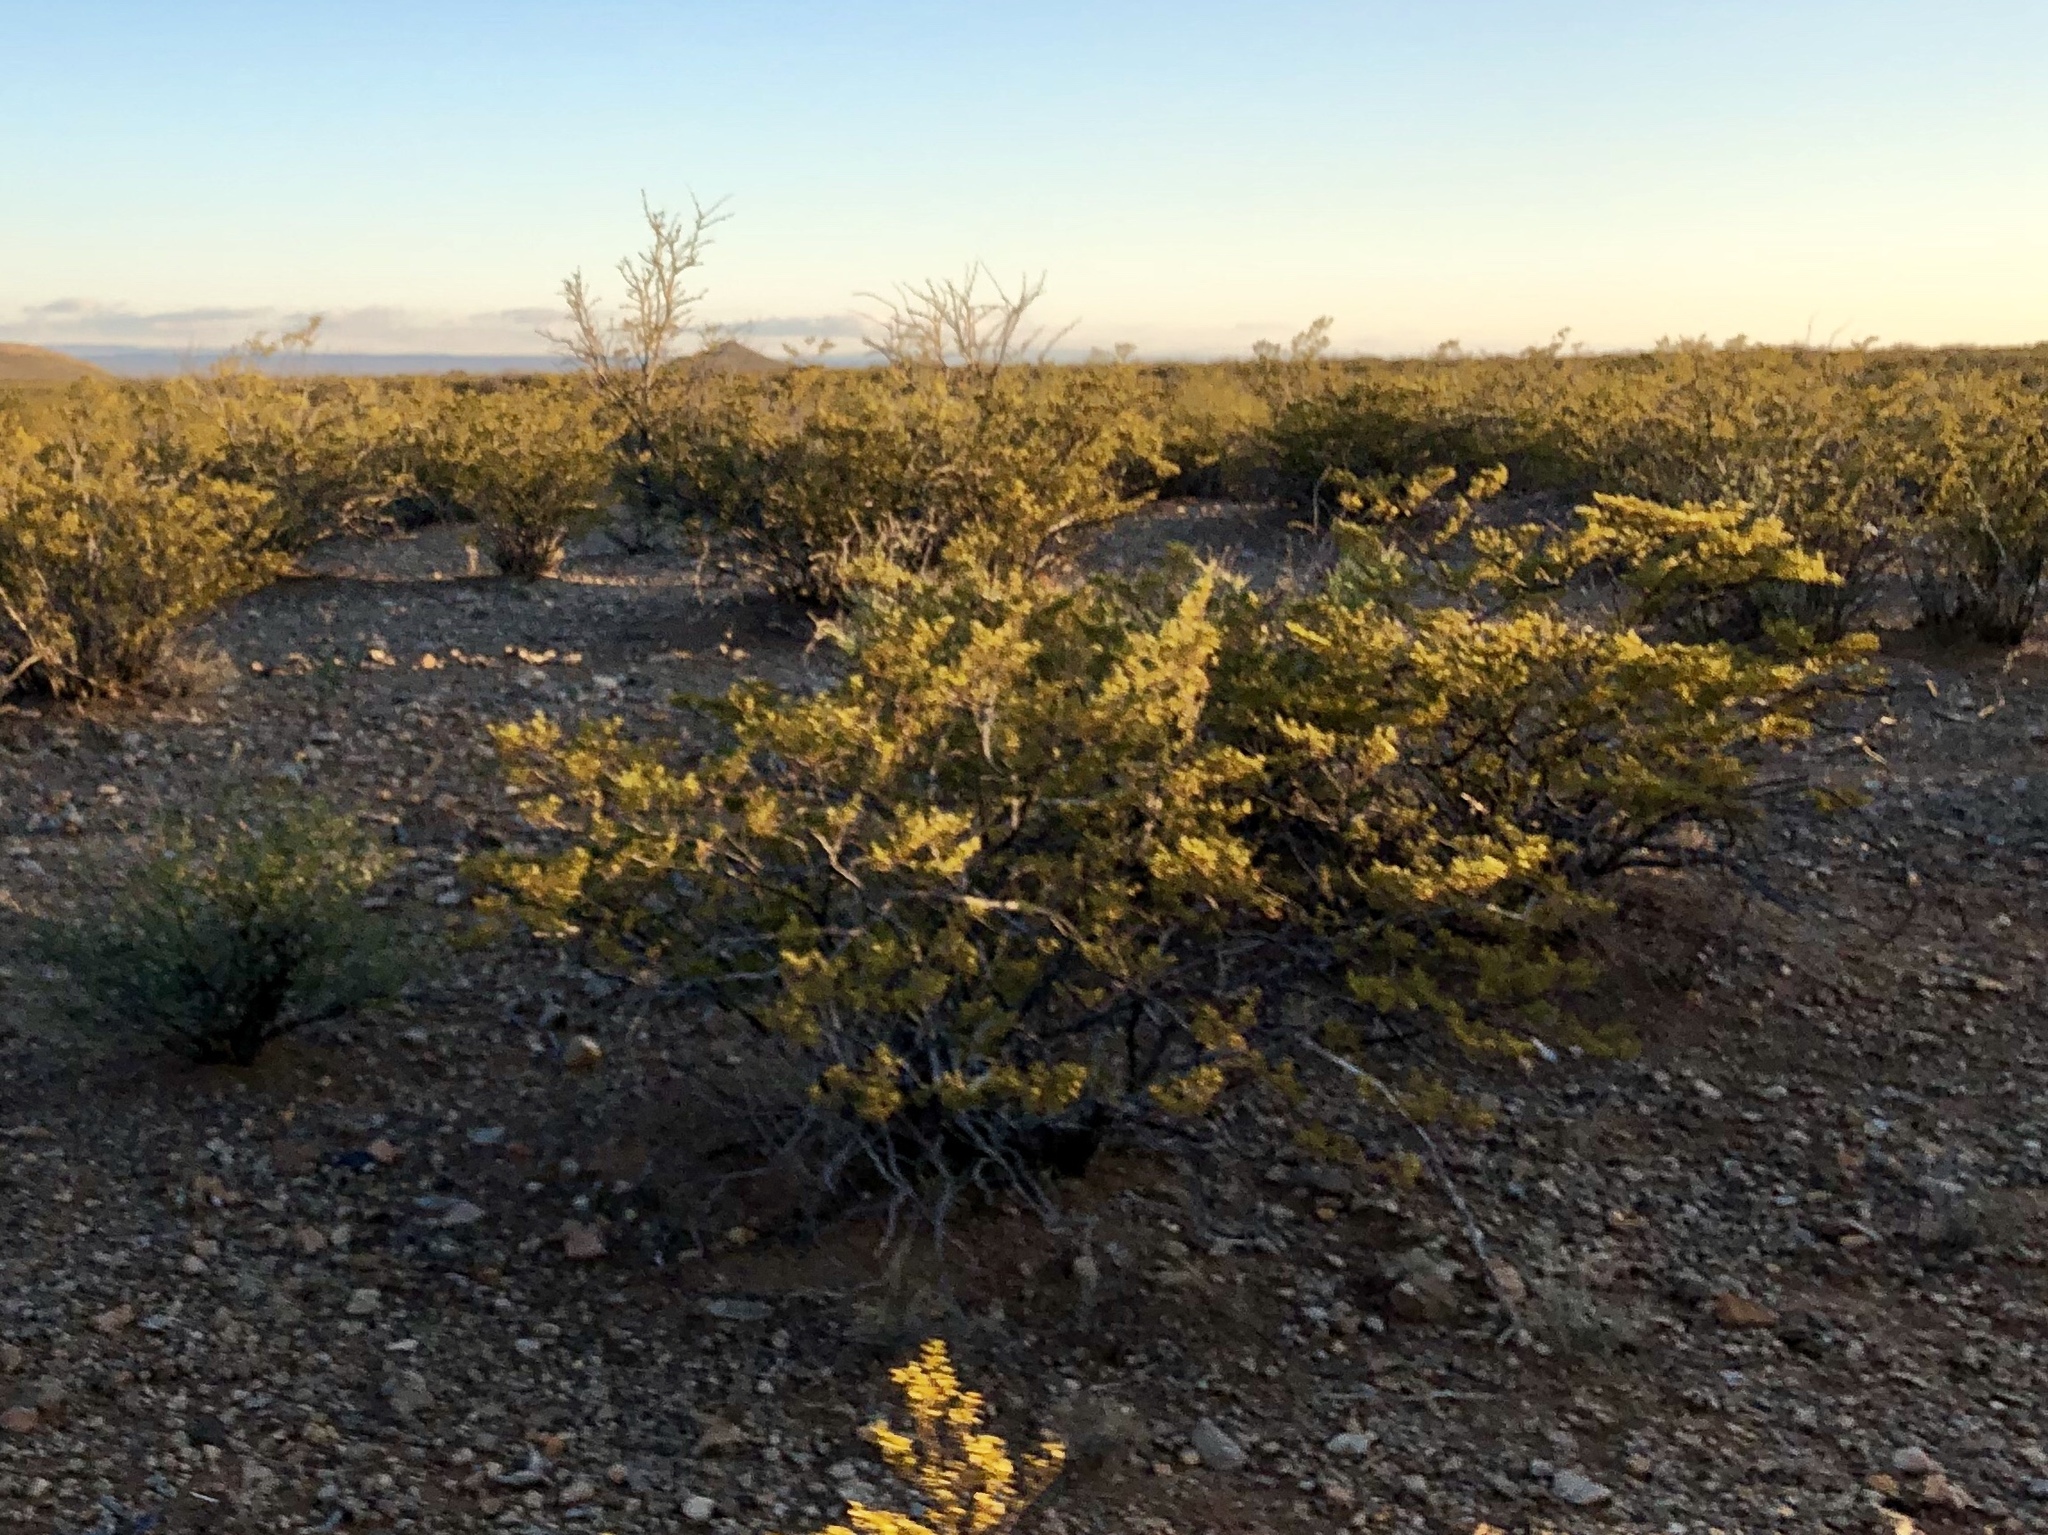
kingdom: Plantae
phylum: Tracheophyta
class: Magnoliopsida
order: Zygophyllales
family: Zygophyllaceae
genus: Larrea
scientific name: Larrea tridentata
